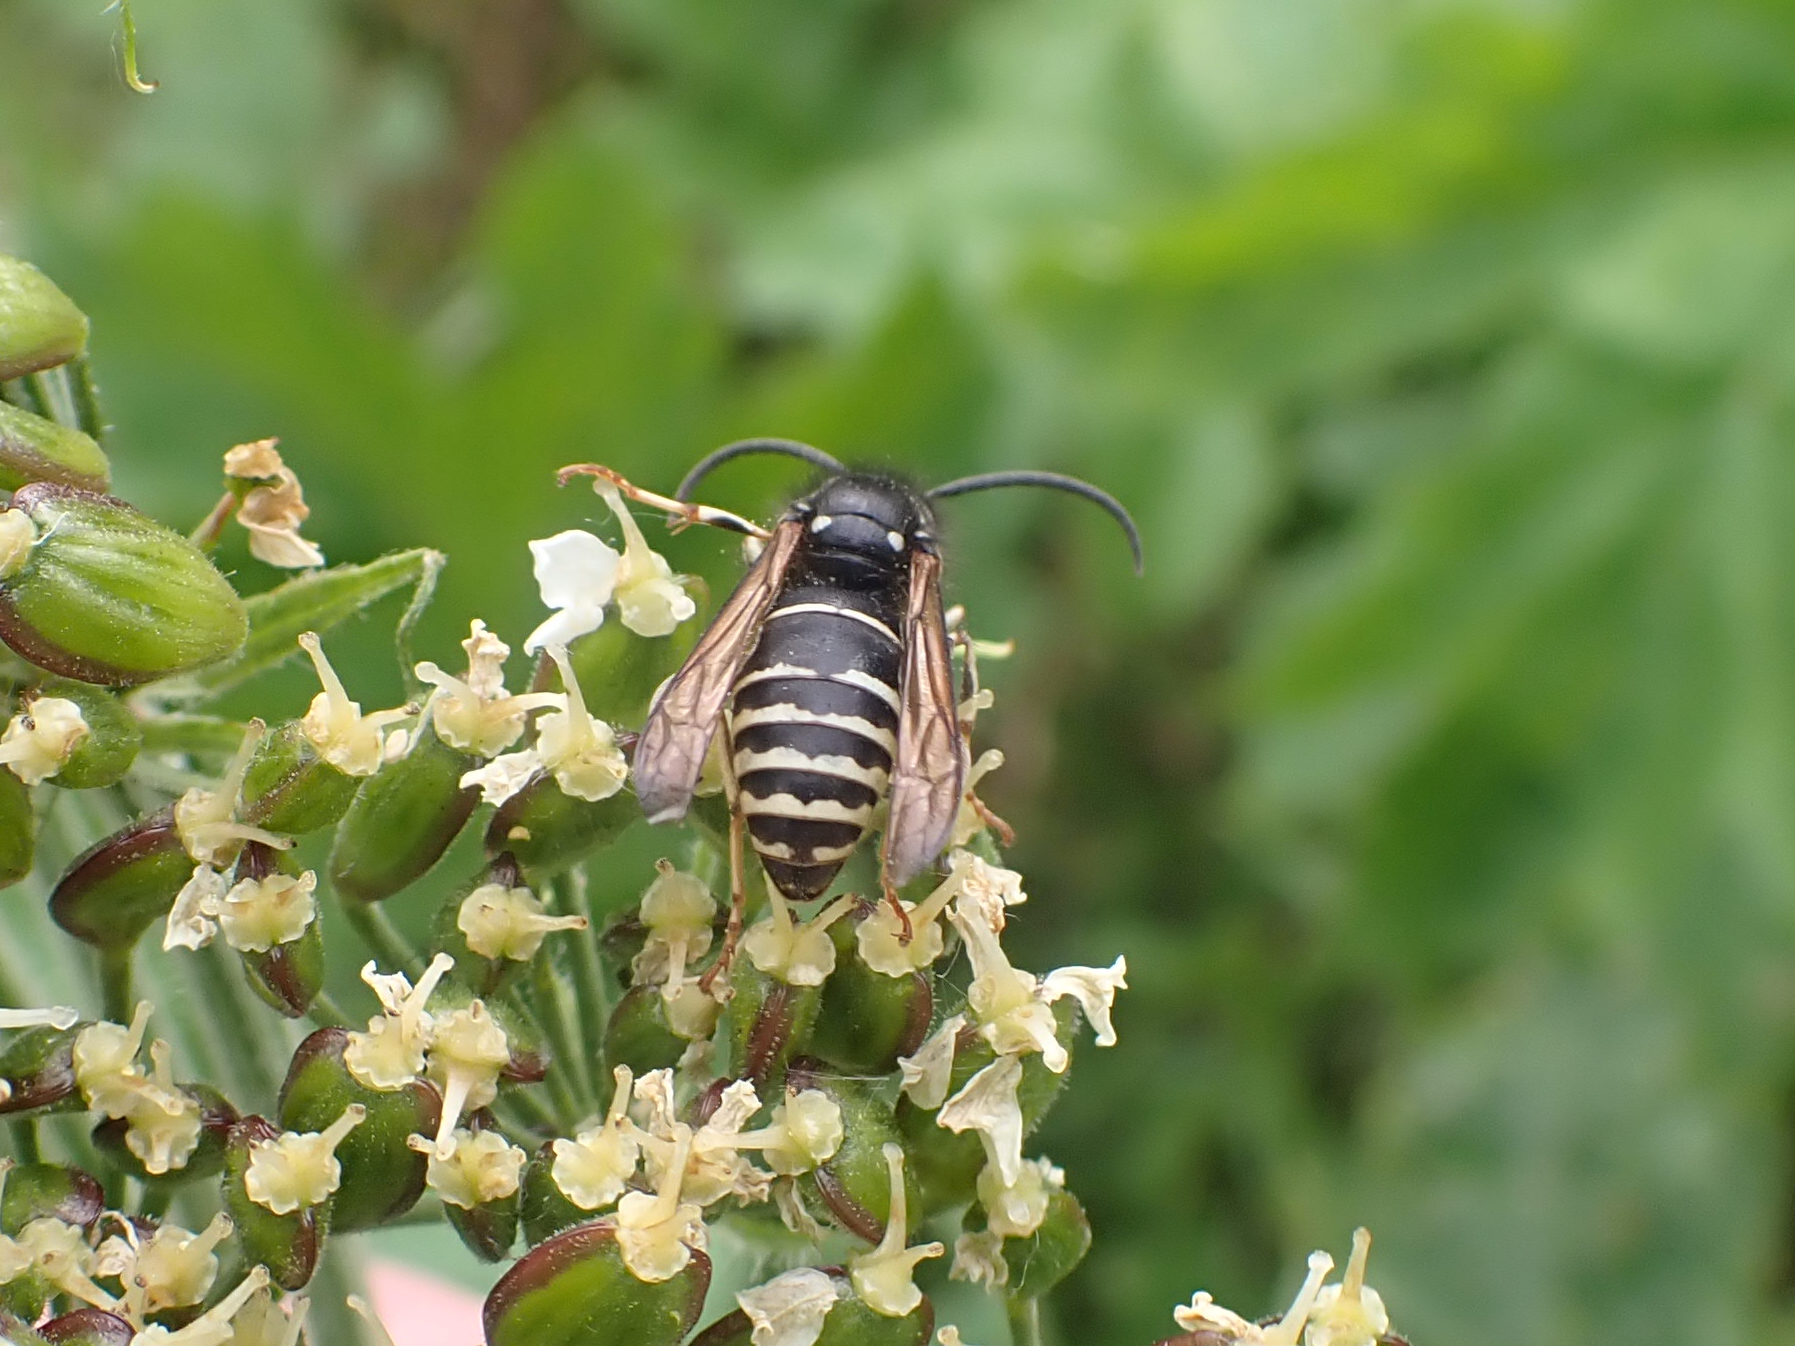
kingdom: Animalia
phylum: Arthropoda
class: Insecta
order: Hymenoptera
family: Vespidae
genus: Dolichovespula
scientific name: Dolichovespula adulterina
